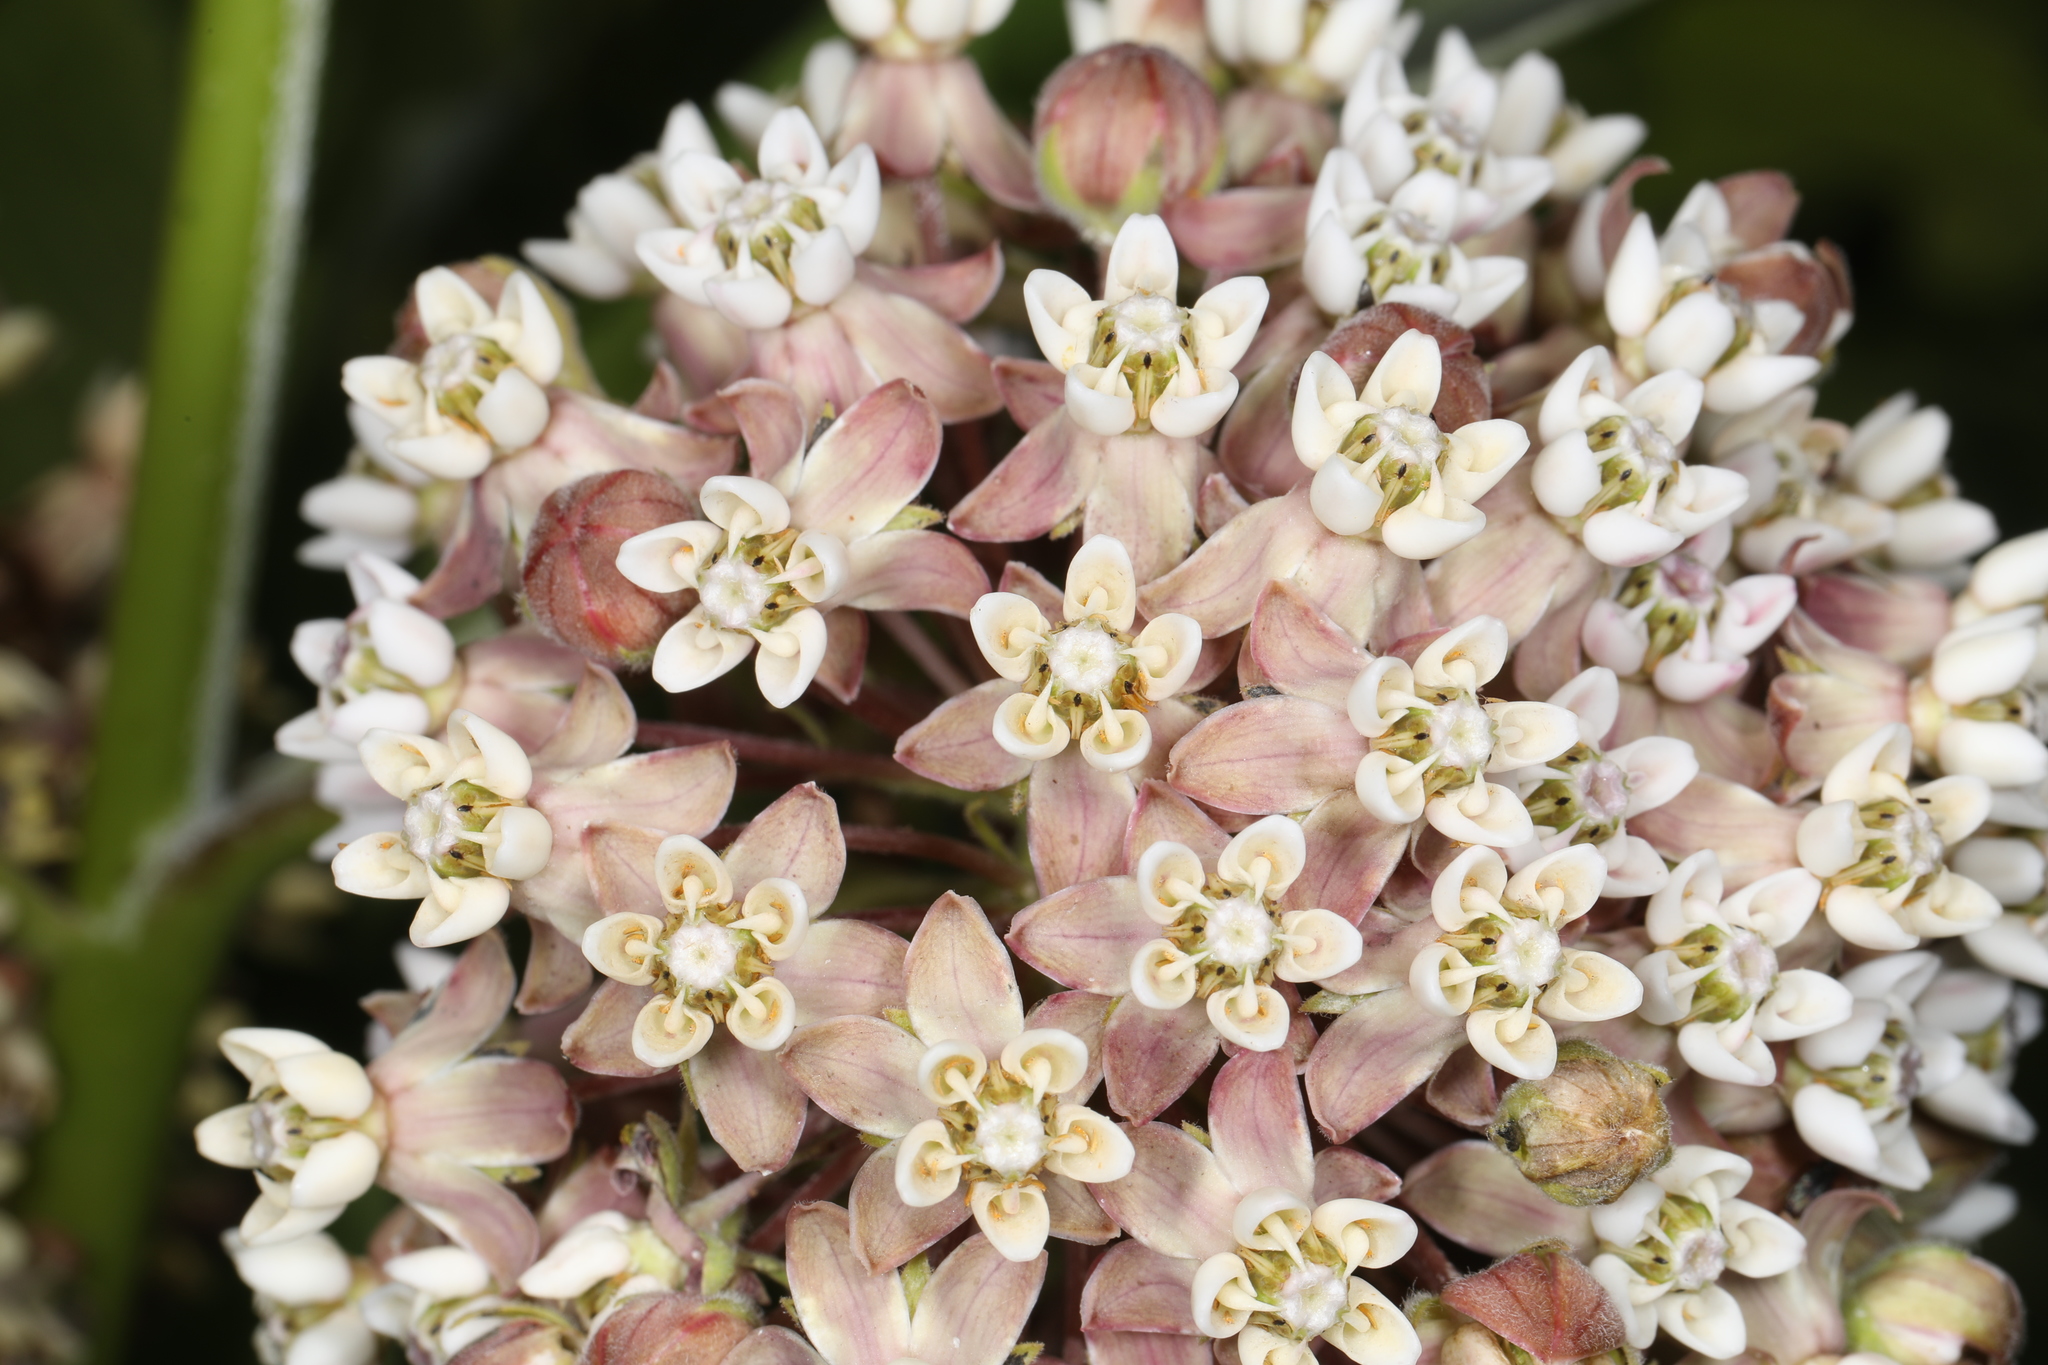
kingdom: Plantae
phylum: Tracheophyta
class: Magnoliopsida
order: Gentianales
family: Apocynaceae
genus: Asclepias
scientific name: Asclepias syriaca
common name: Common milkweed
